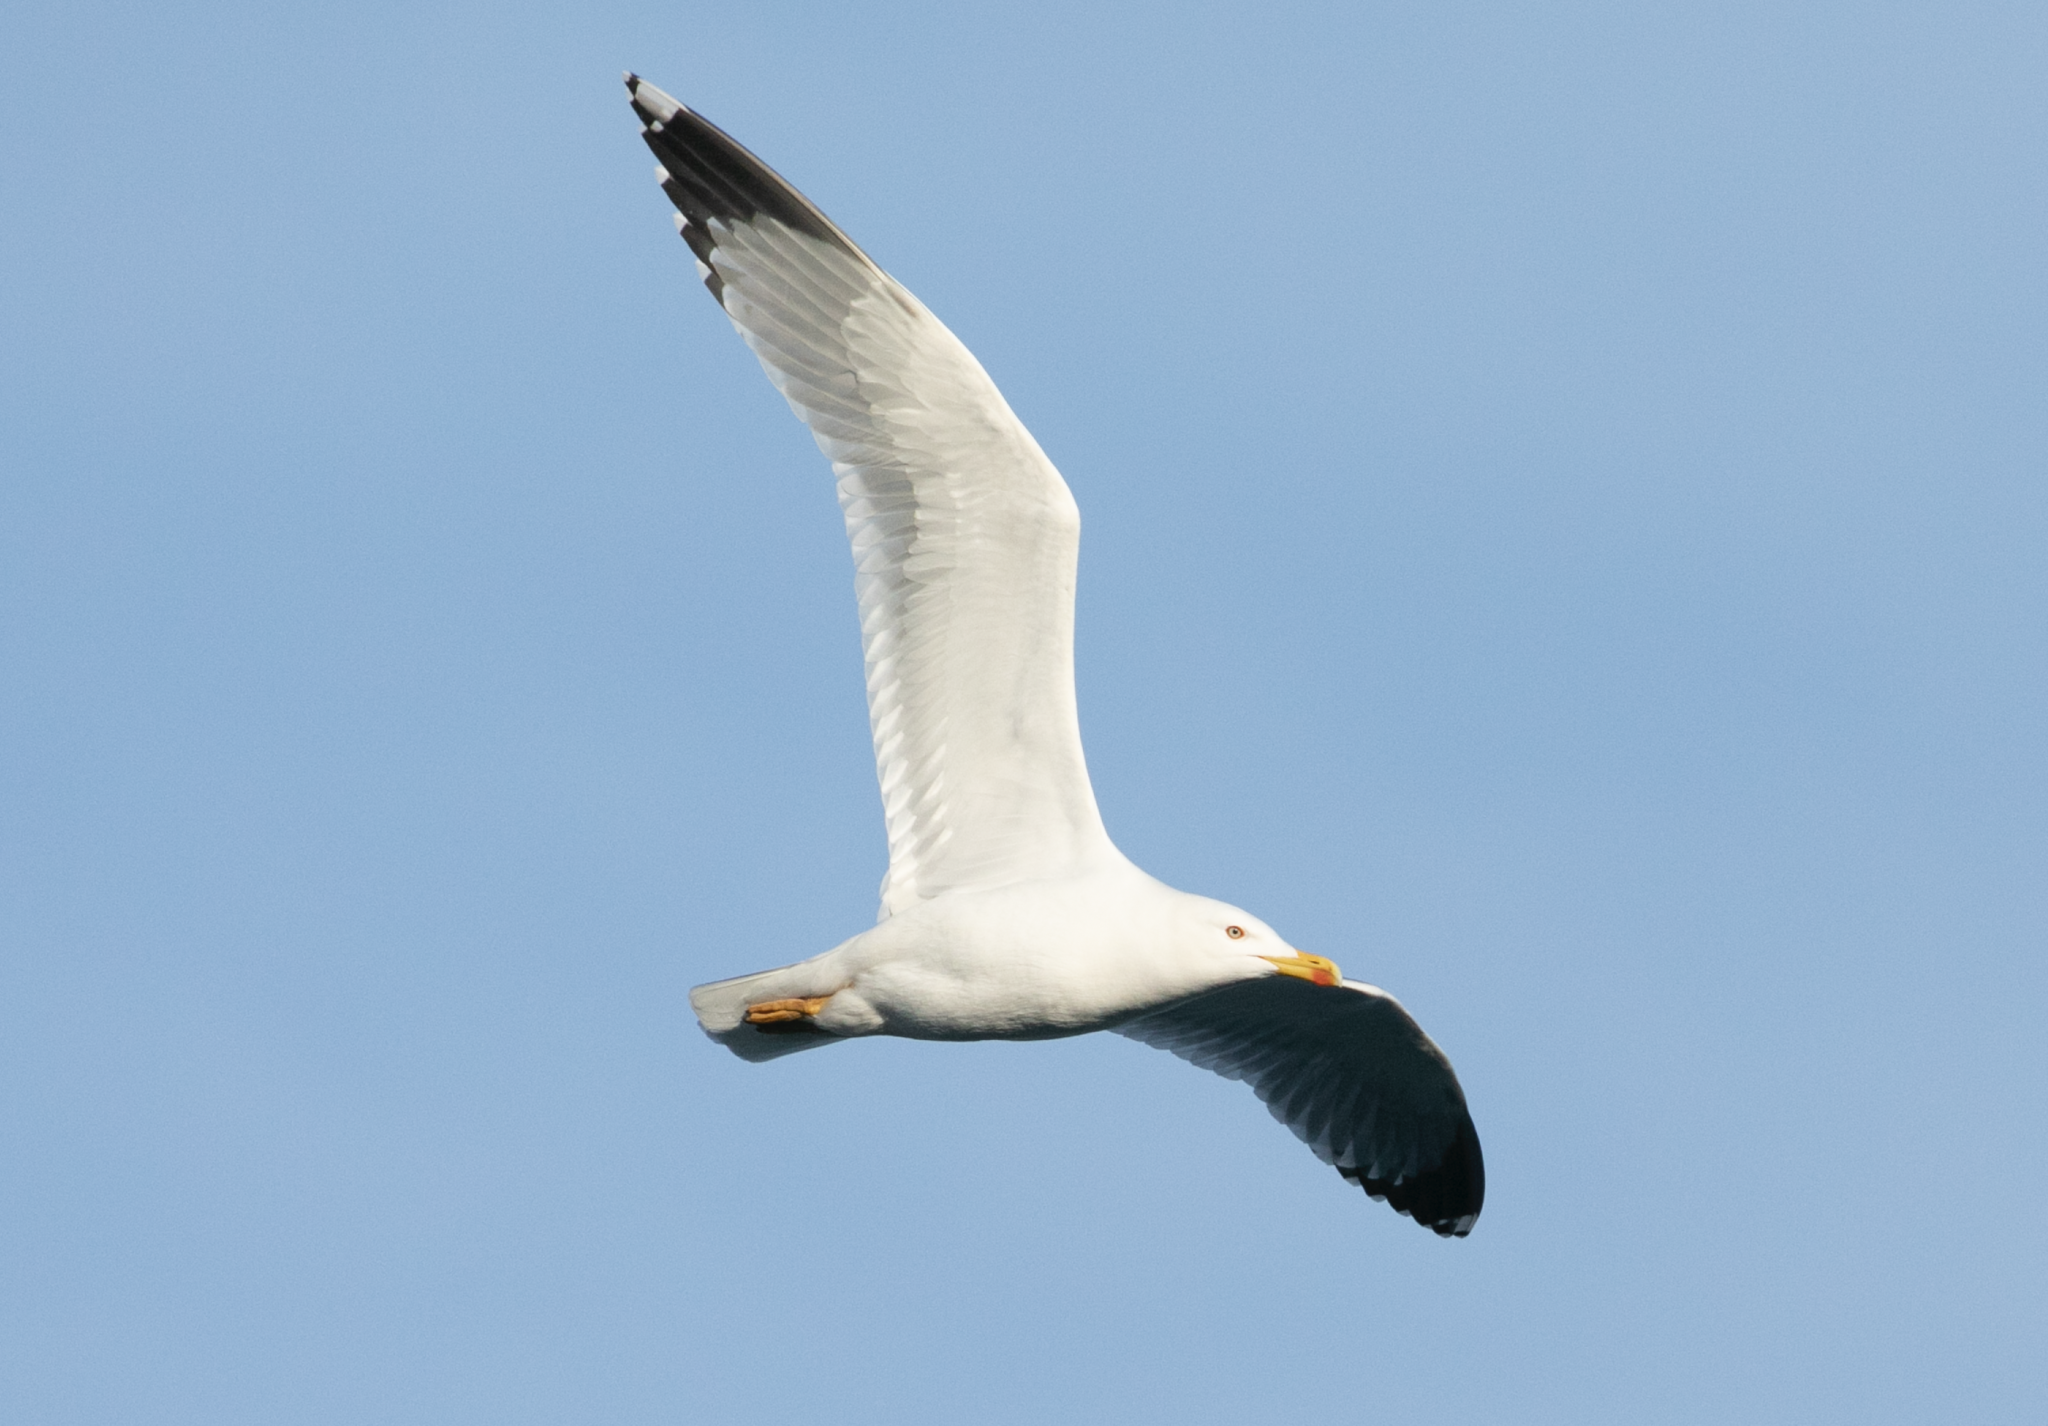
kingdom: Animalia
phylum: Chordata
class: Aves
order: Charadriiformes
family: Laridae
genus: Larus
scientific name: Larus michahellis
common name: Yellow-legged gull
